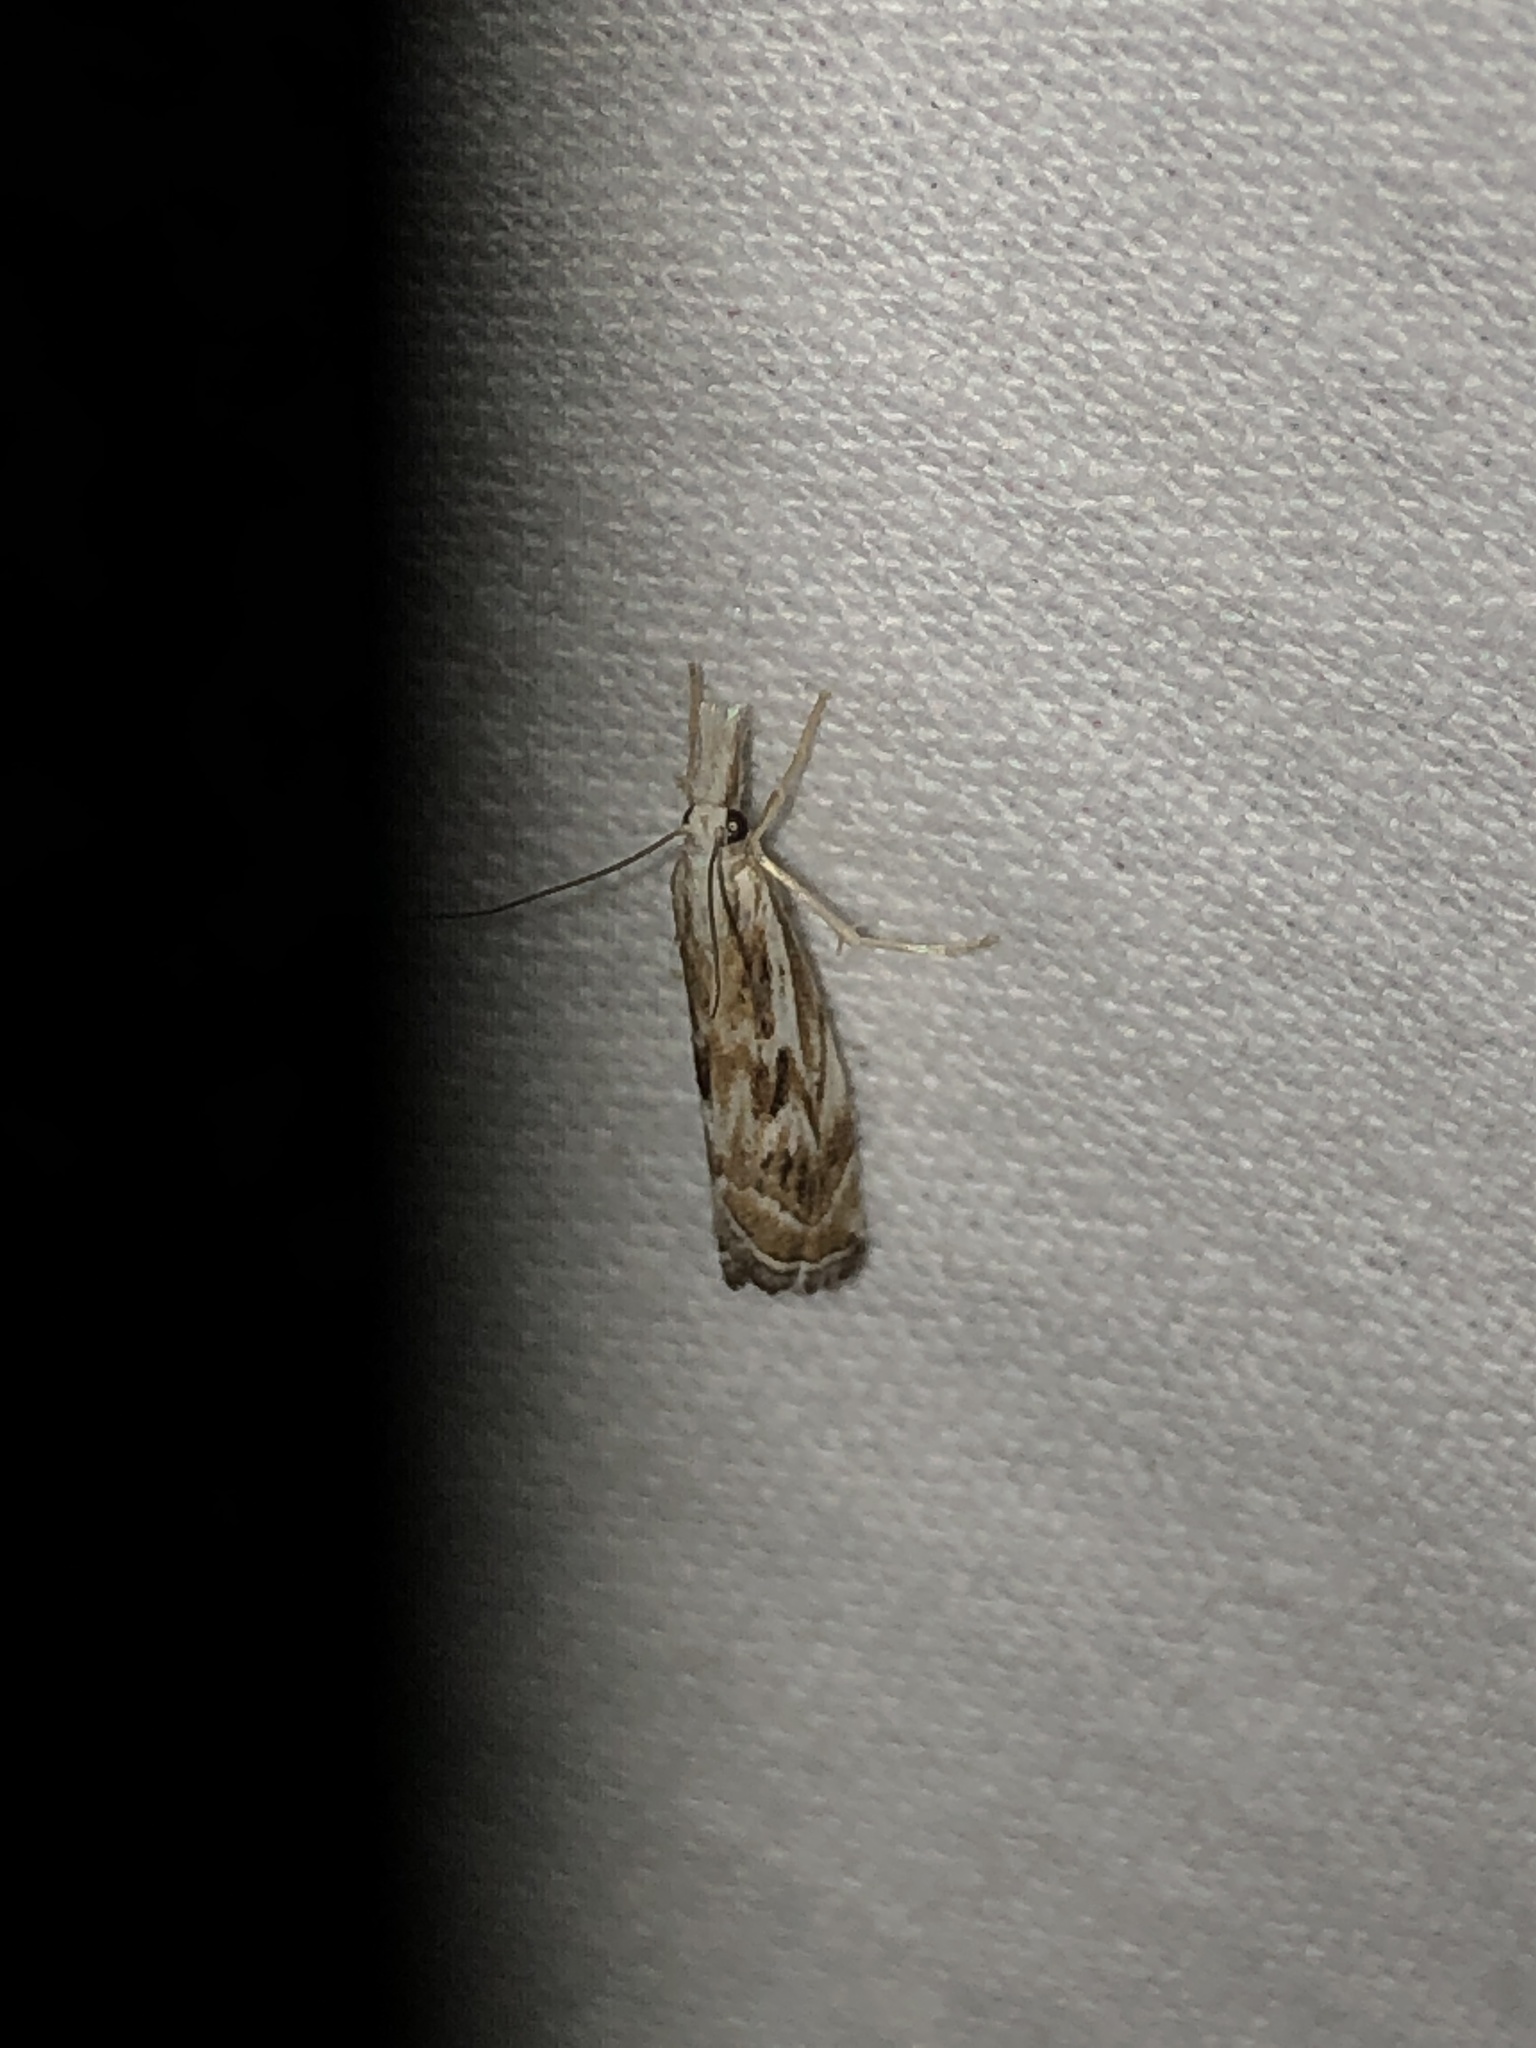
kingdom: Animalia
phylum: Arthropoda
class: Insecta
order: Lepidoptera
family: Crambidae
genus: Catoptria
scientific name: Catoptria oregonicus
